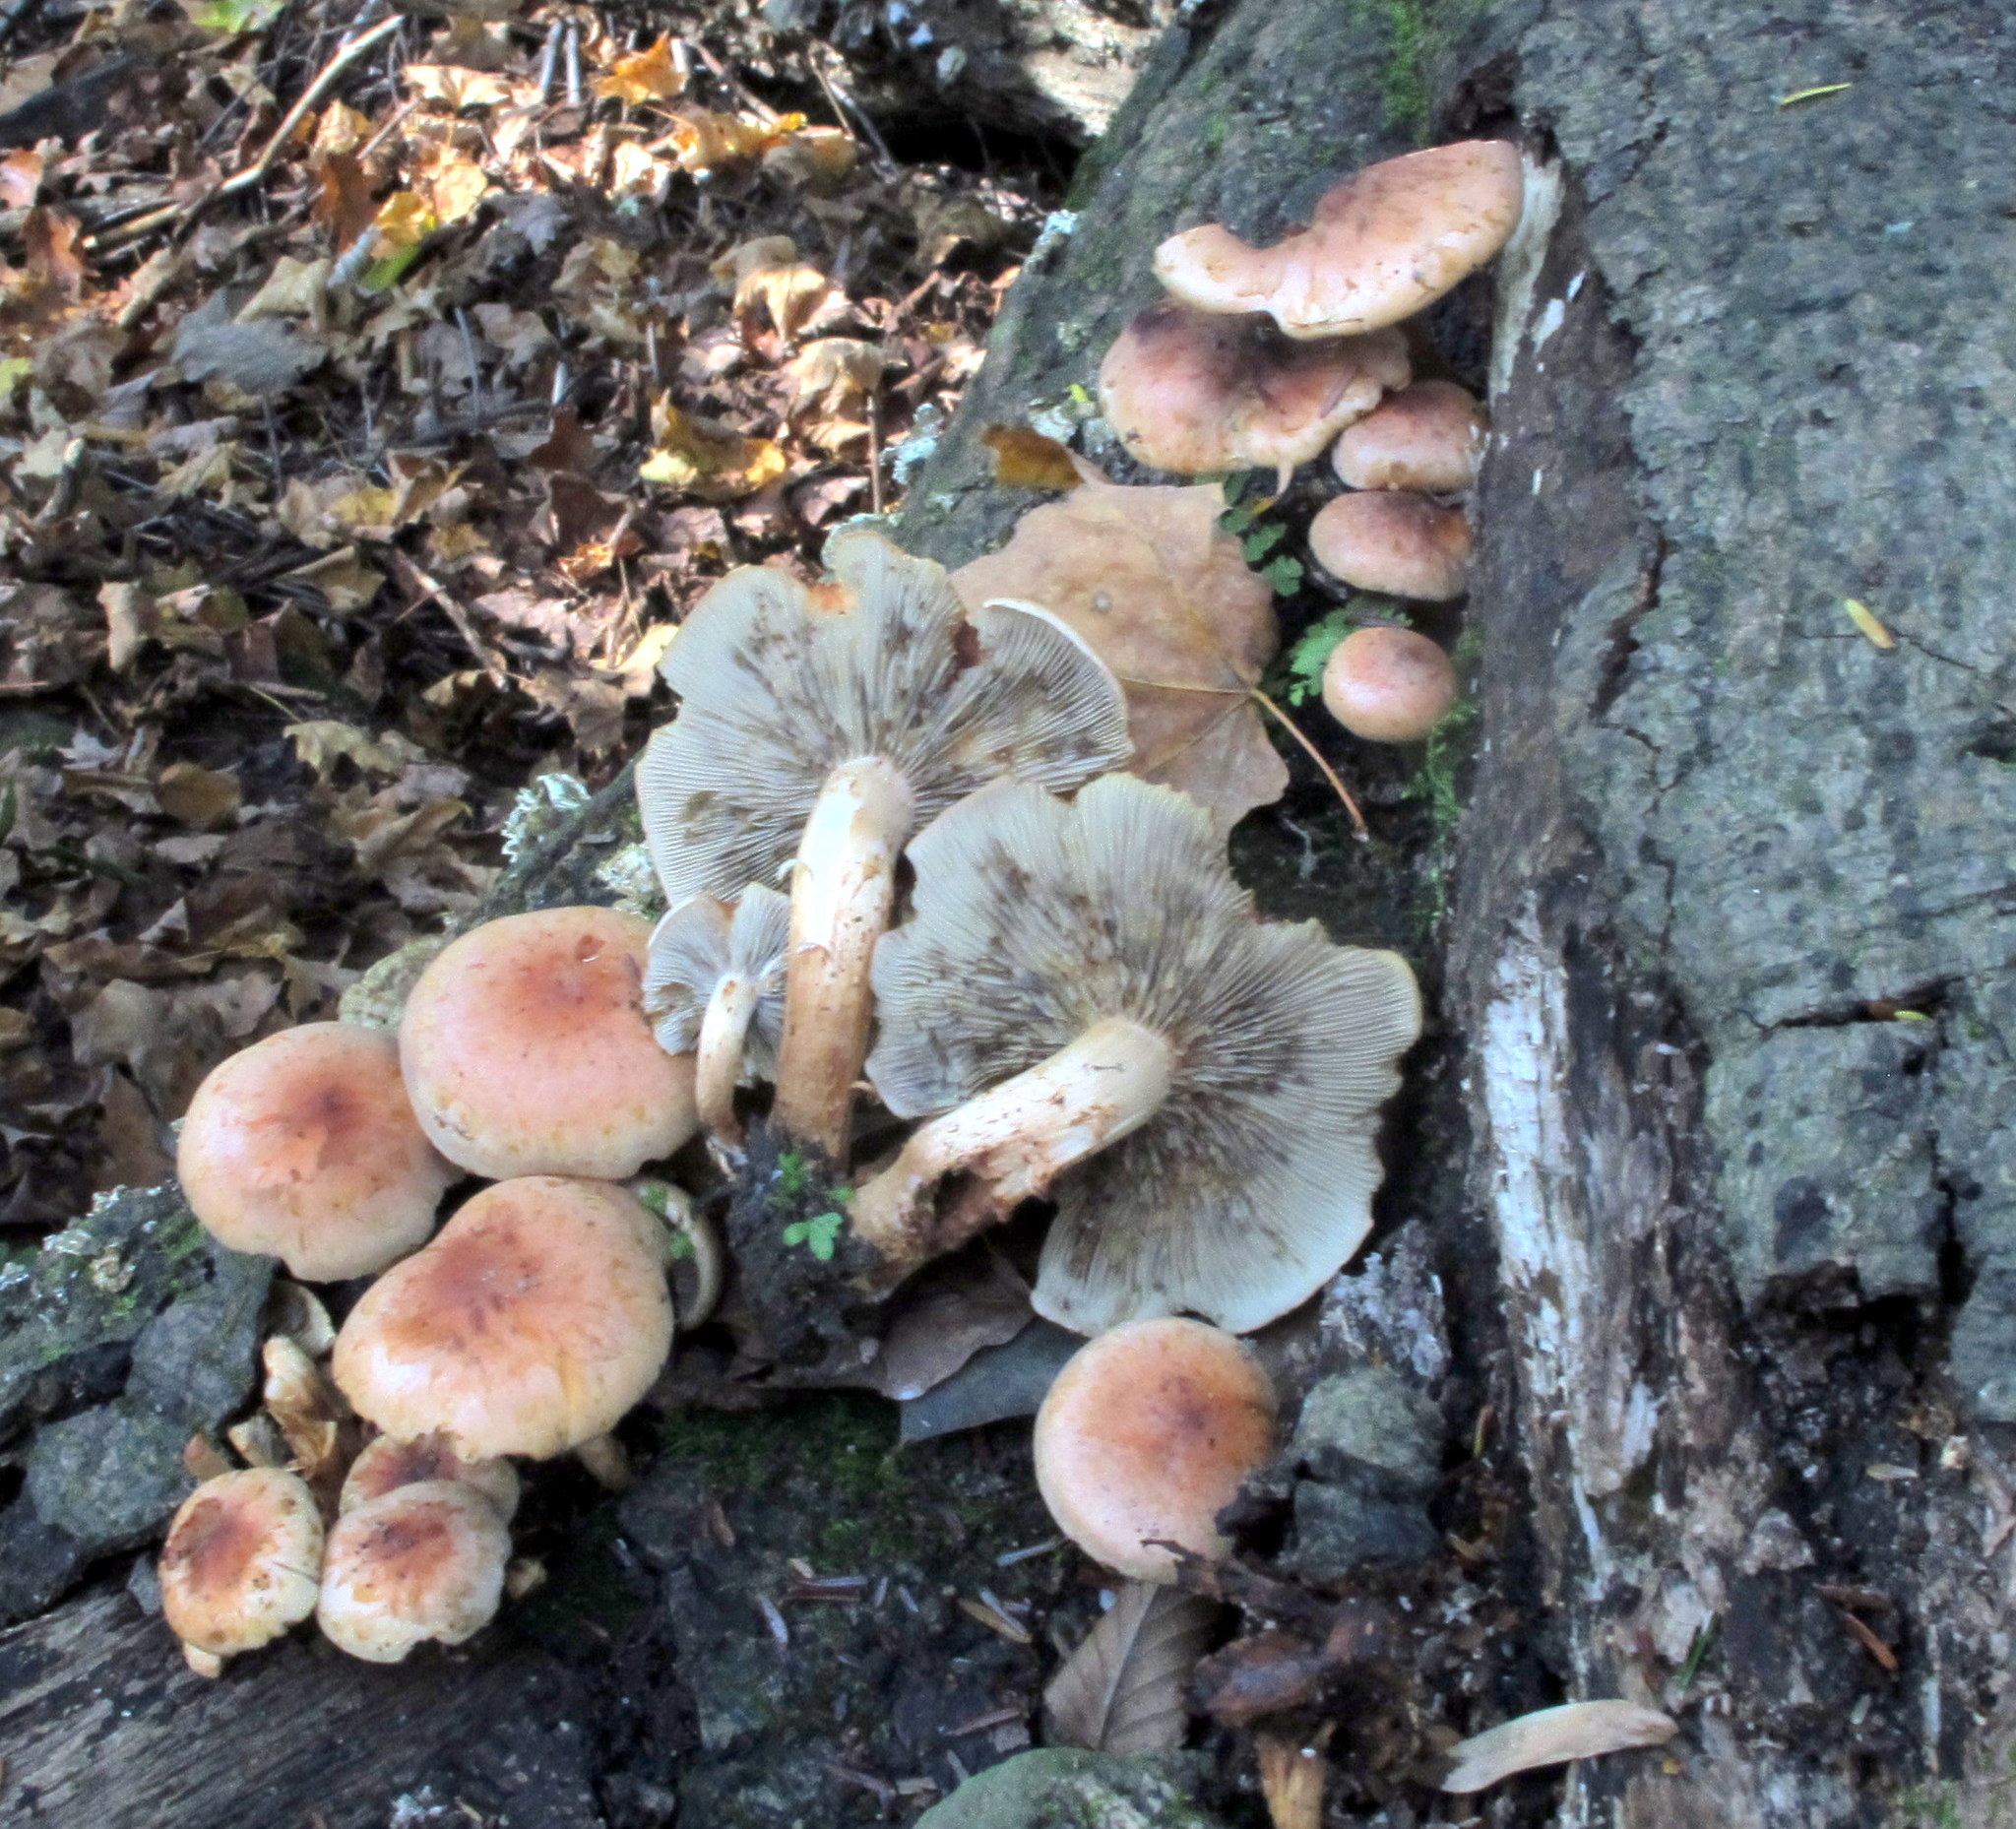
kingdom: Fungi
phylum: Basidiomycota
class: Agaricomycetes
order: Agaricales
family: Strophariaceae
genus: Hypholoma
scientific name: Hypholoma lateritium
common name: Brick caps
